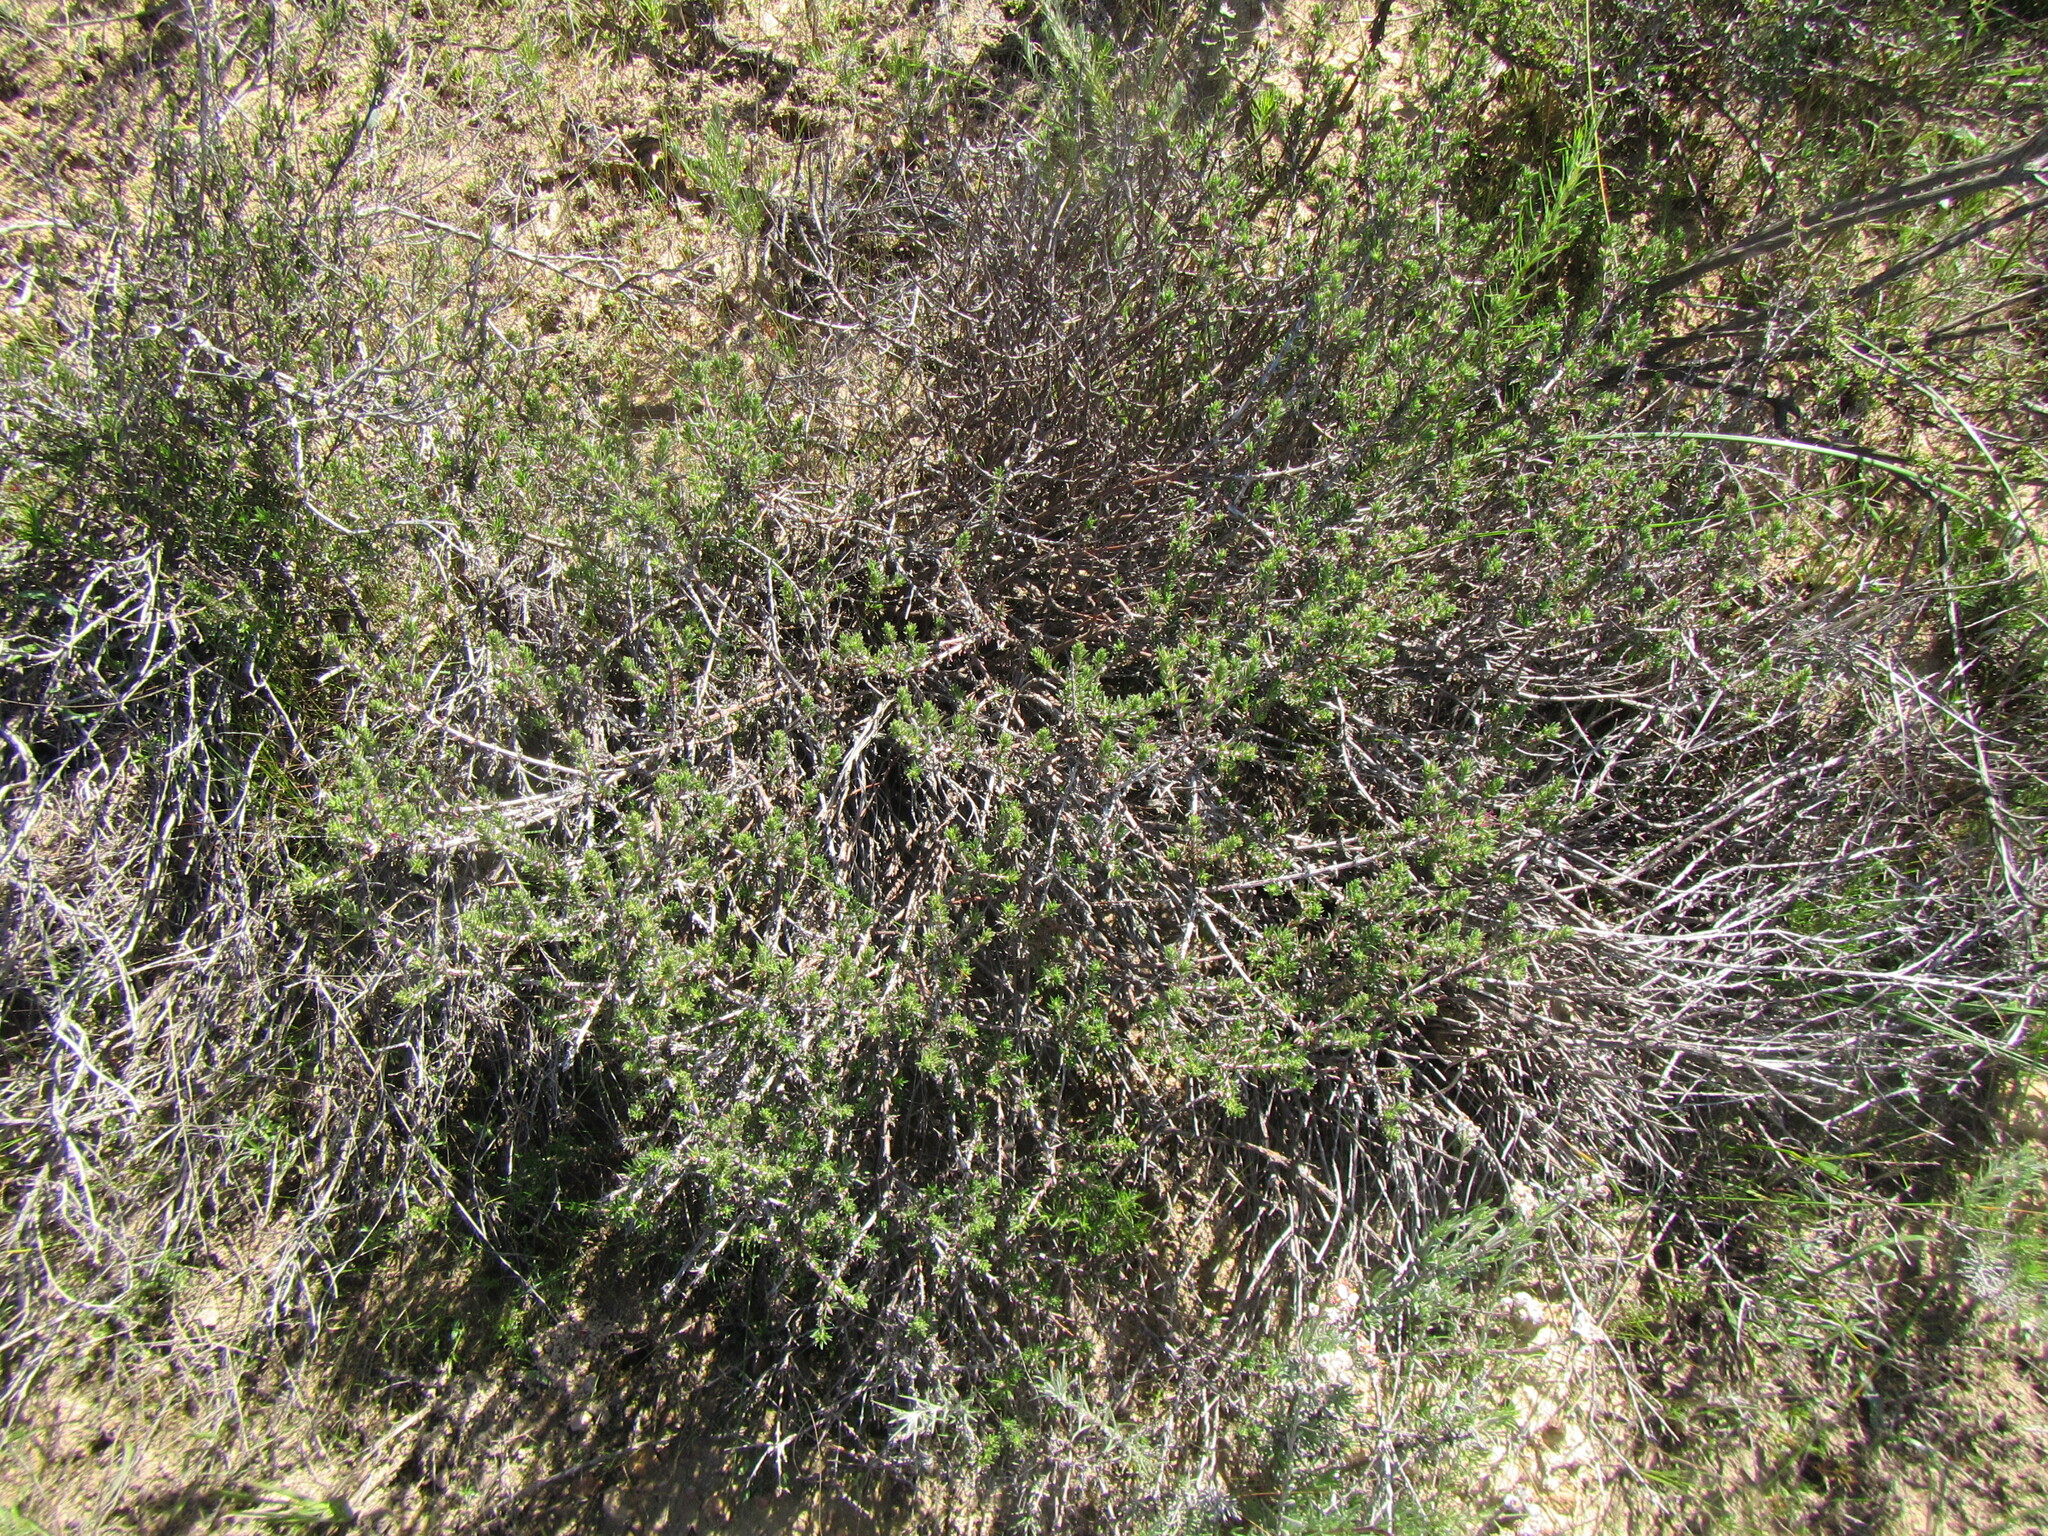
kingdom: Plantae
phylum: Tracheophyta
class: Magnoliopsida
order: Gentianales
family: Rubiaceae
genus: Nenax
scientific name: Nenax acerosa
